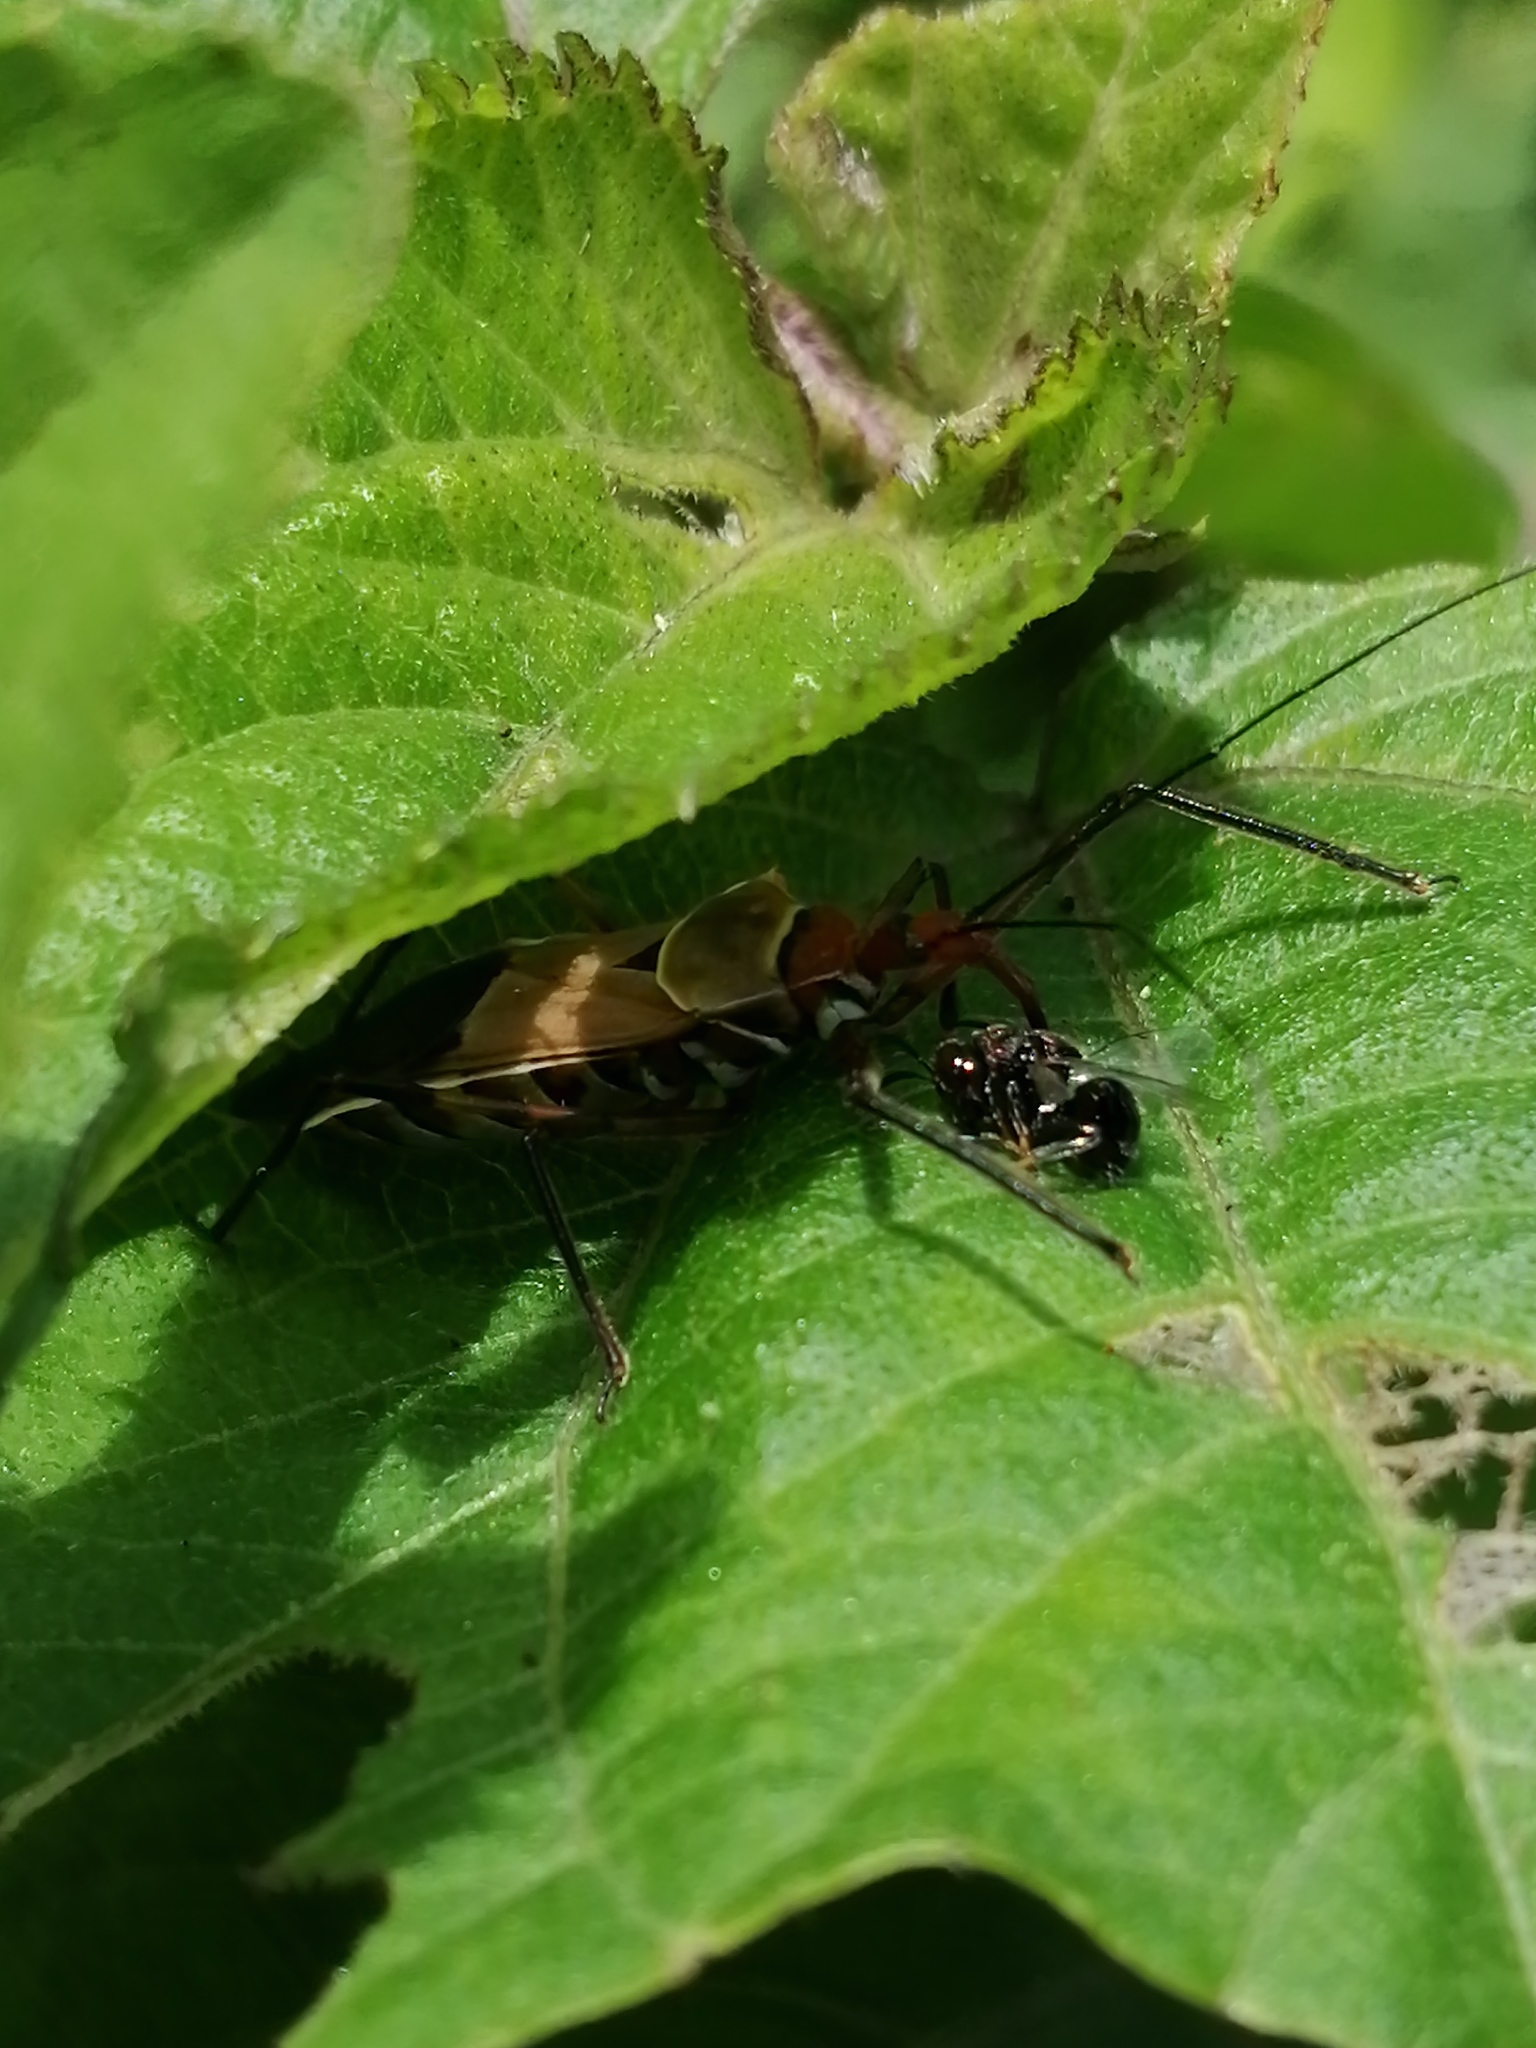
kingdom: Animalia
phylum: Arthropoda
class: Insecta
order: Hemiptera
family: Reduviidae
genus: Zelus
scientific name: Zelus ruficeps
